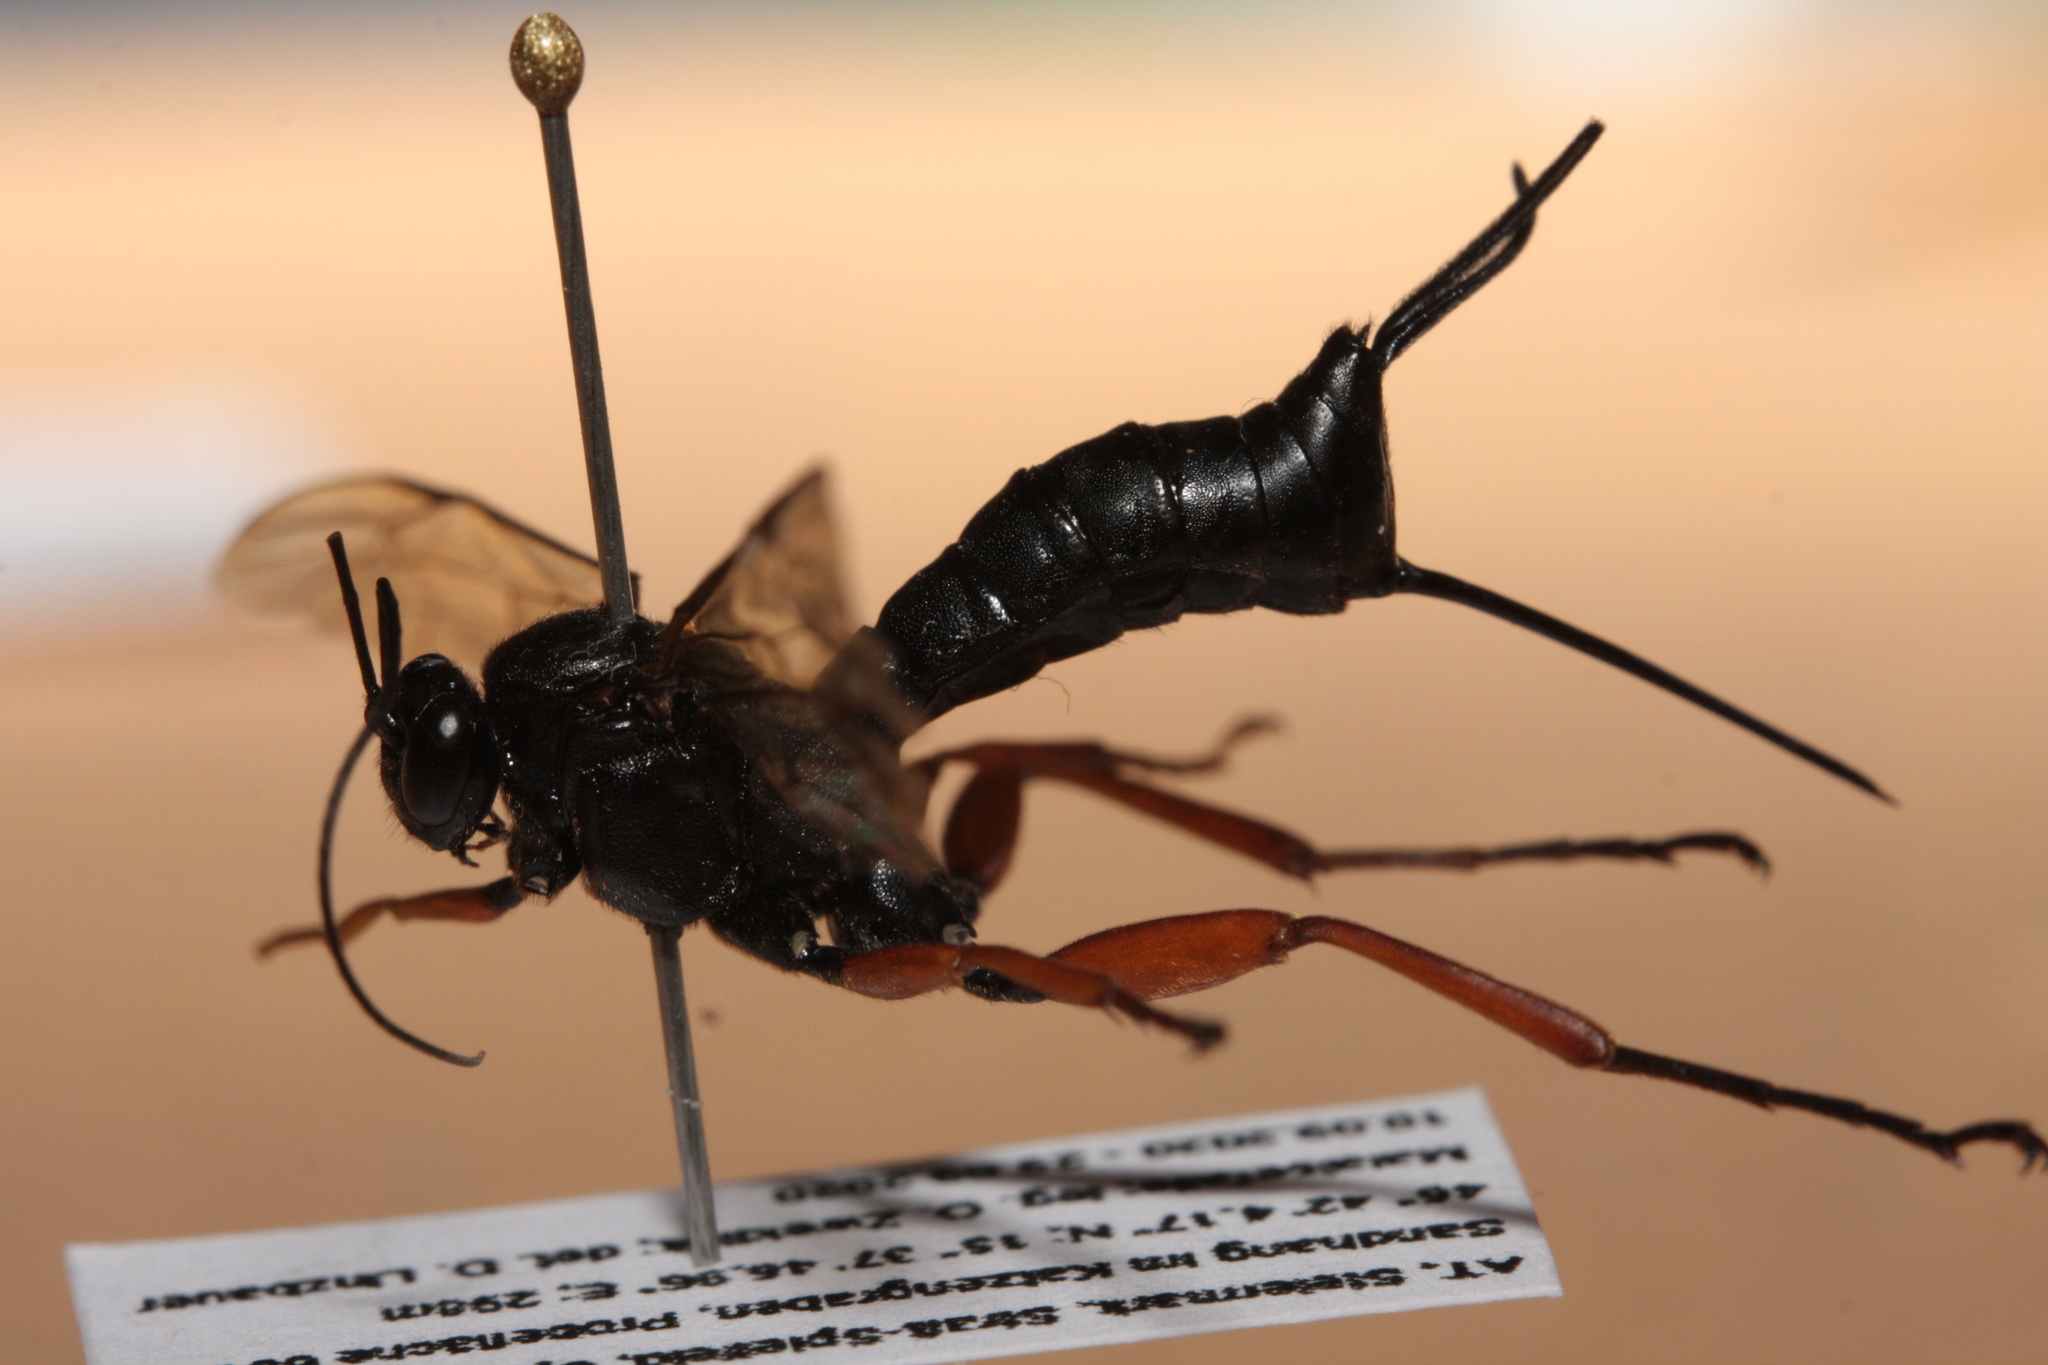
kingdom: Animalia
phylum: Arthropoda
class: Insecta
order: Hymenoptera
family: Ichneumonidae
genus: Pimpla
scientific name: Pimpla rufipes
